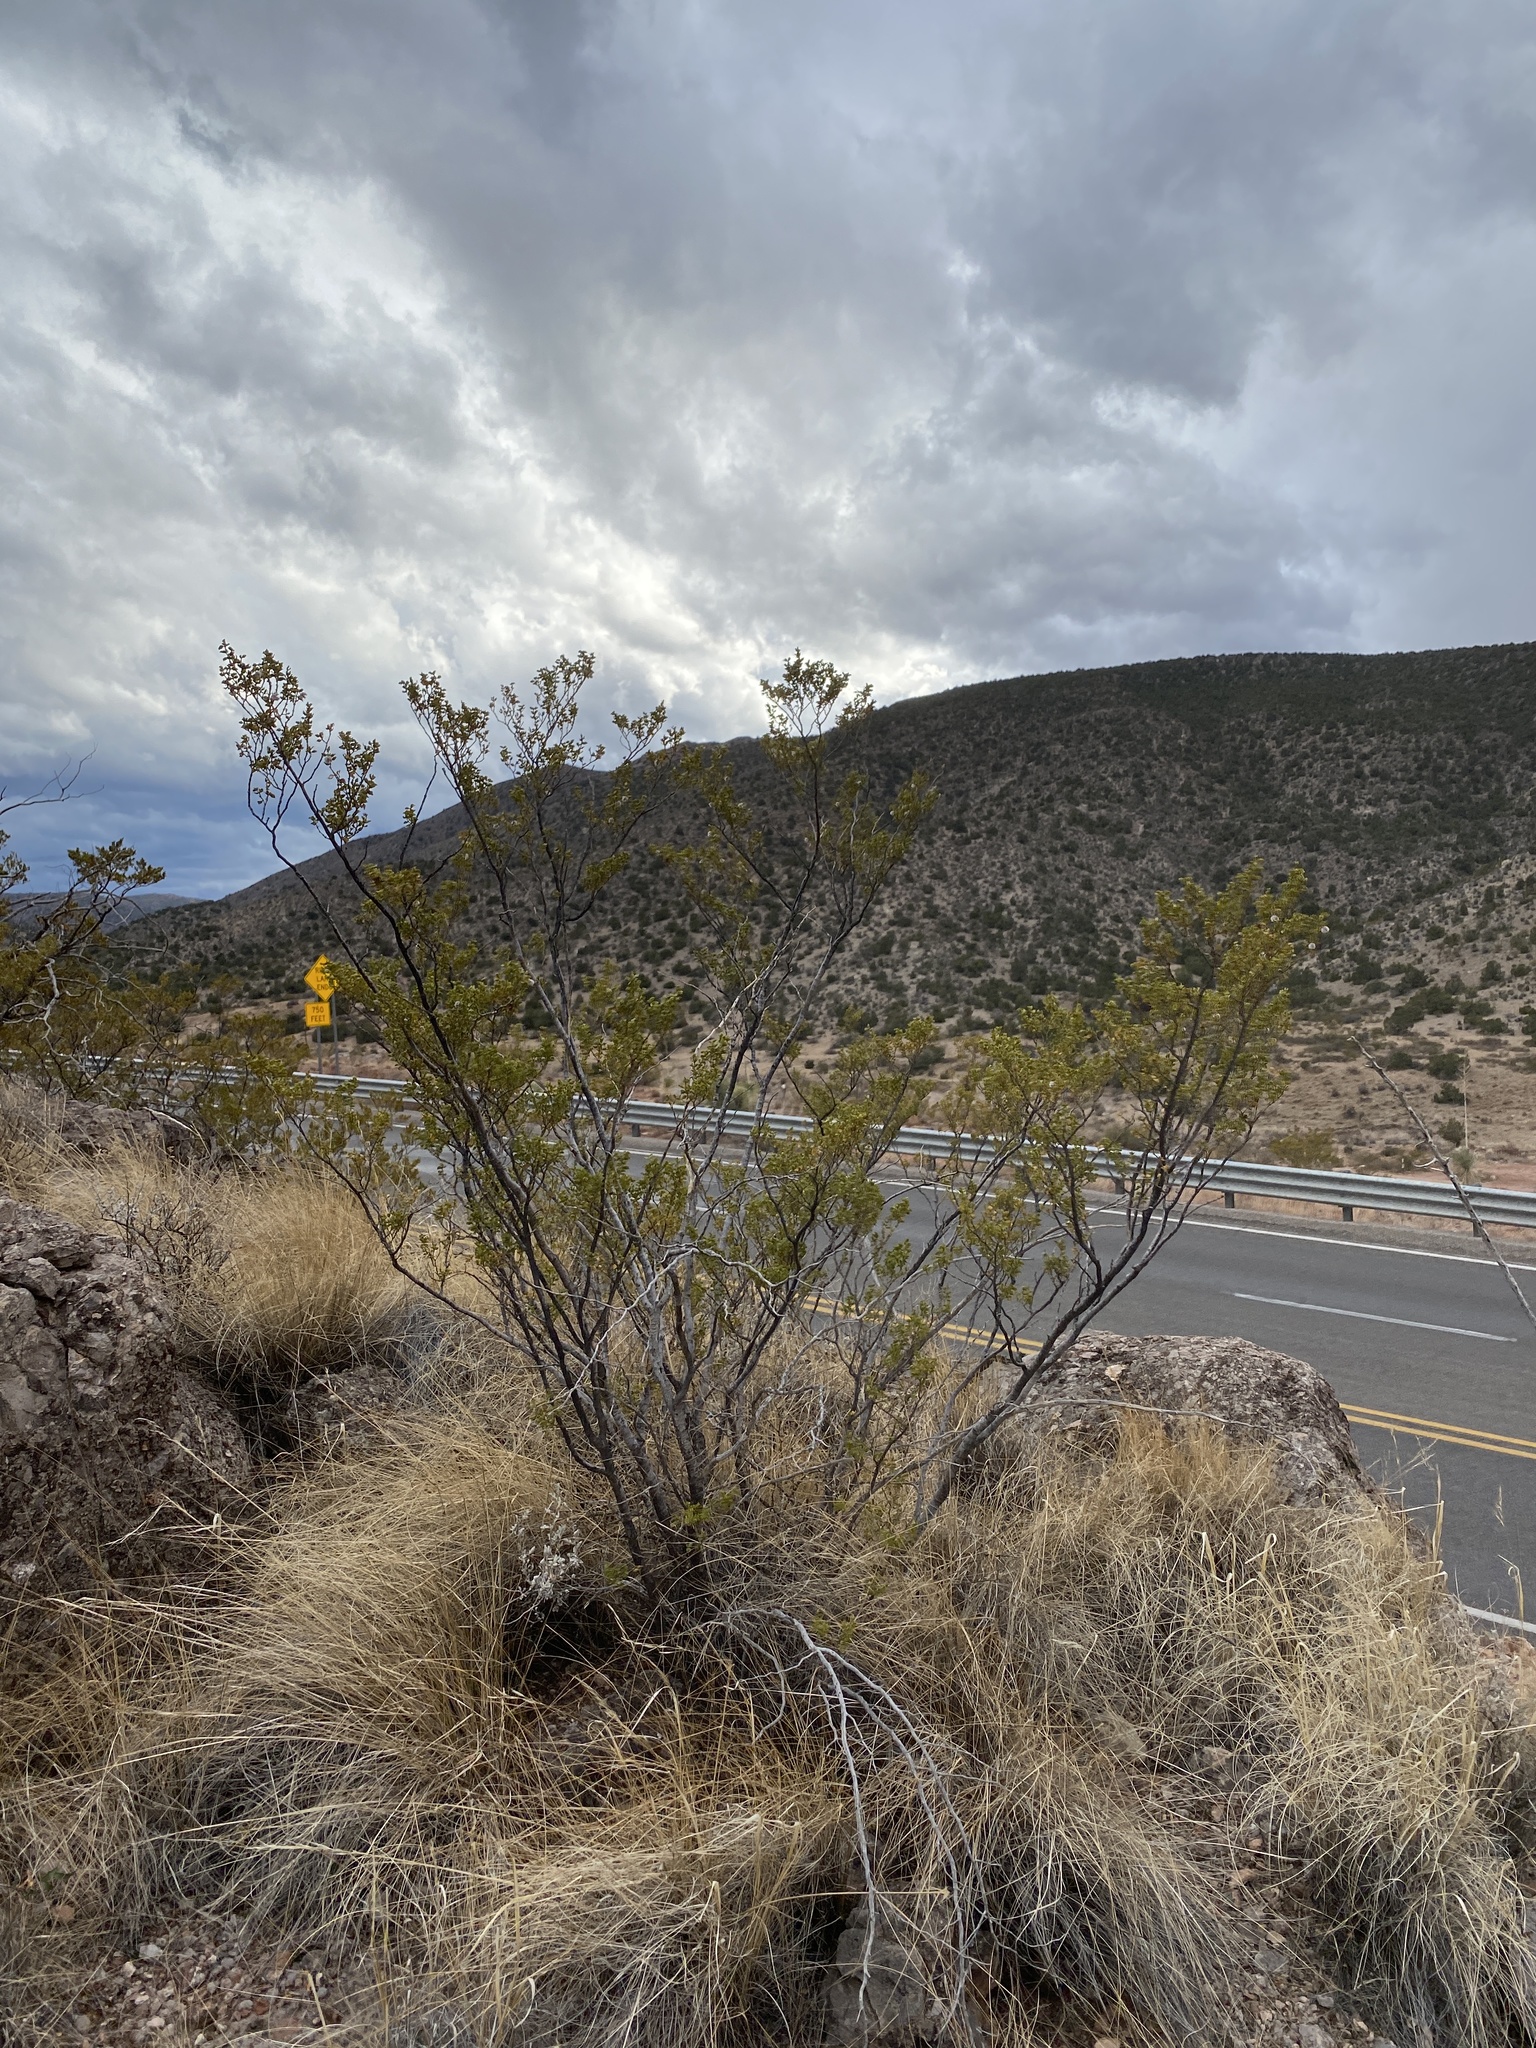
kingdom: Plantae
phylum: Tracheophyta
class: Magnoliopsida
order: Zygophyllales
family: Zygophyllaceae
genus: Larrea
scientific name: Larrea tridentata
